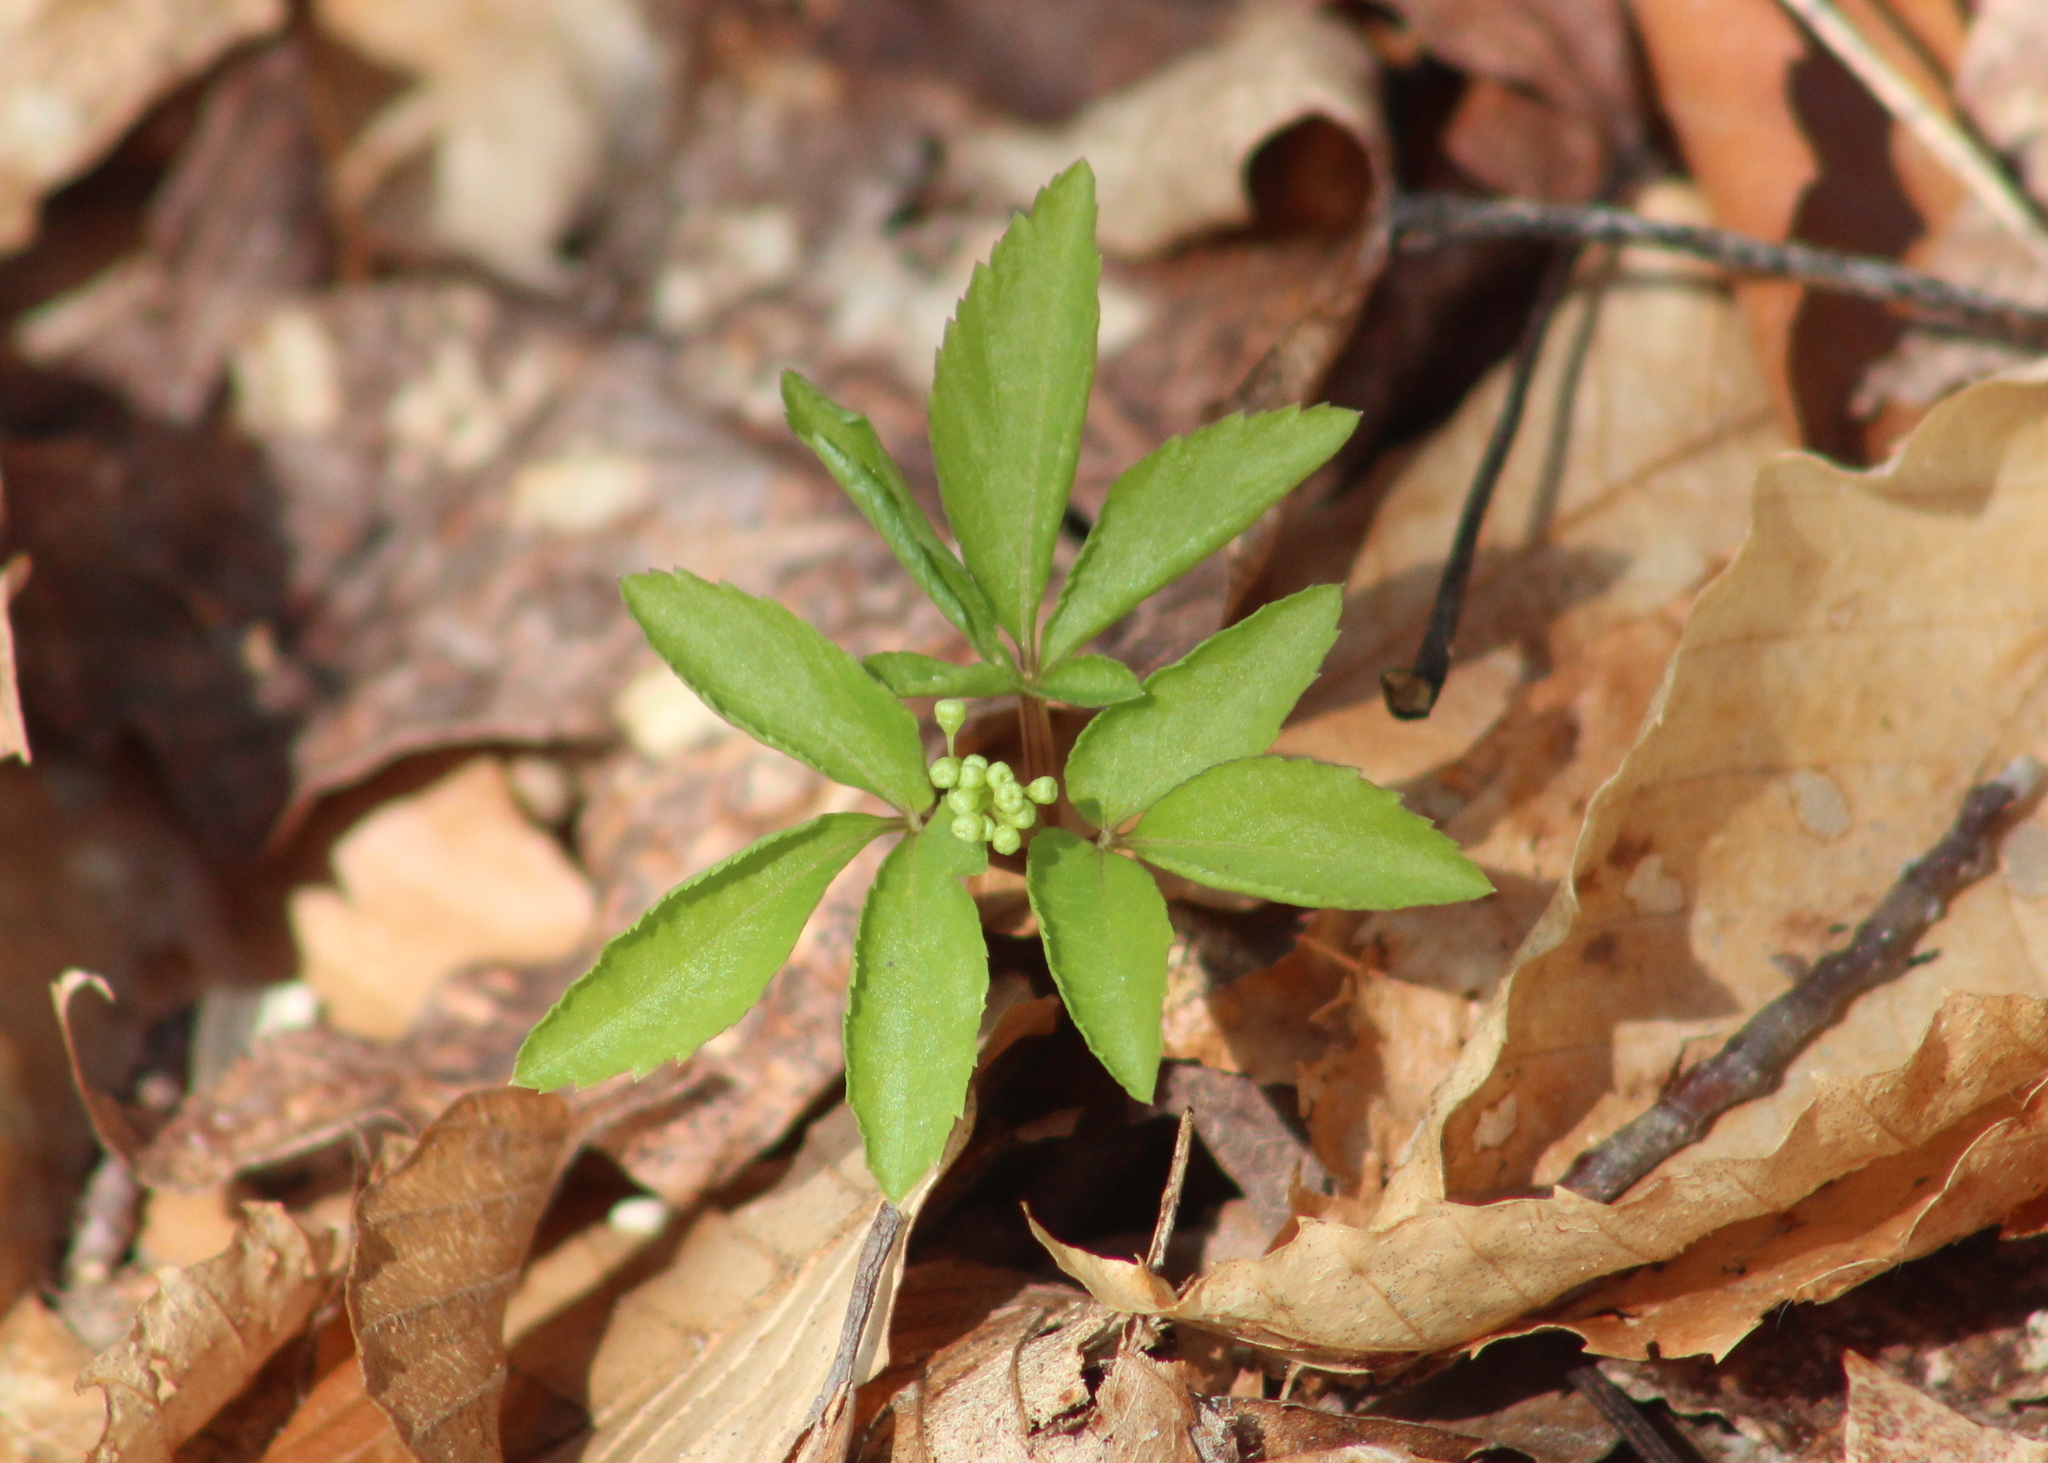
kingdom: Plantae
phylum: Tracheophyta
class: Magnoliopsida
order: Apiales
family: Araliaceae
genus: Panax
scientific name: Panax trifolius
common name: Dwarf ginseng
